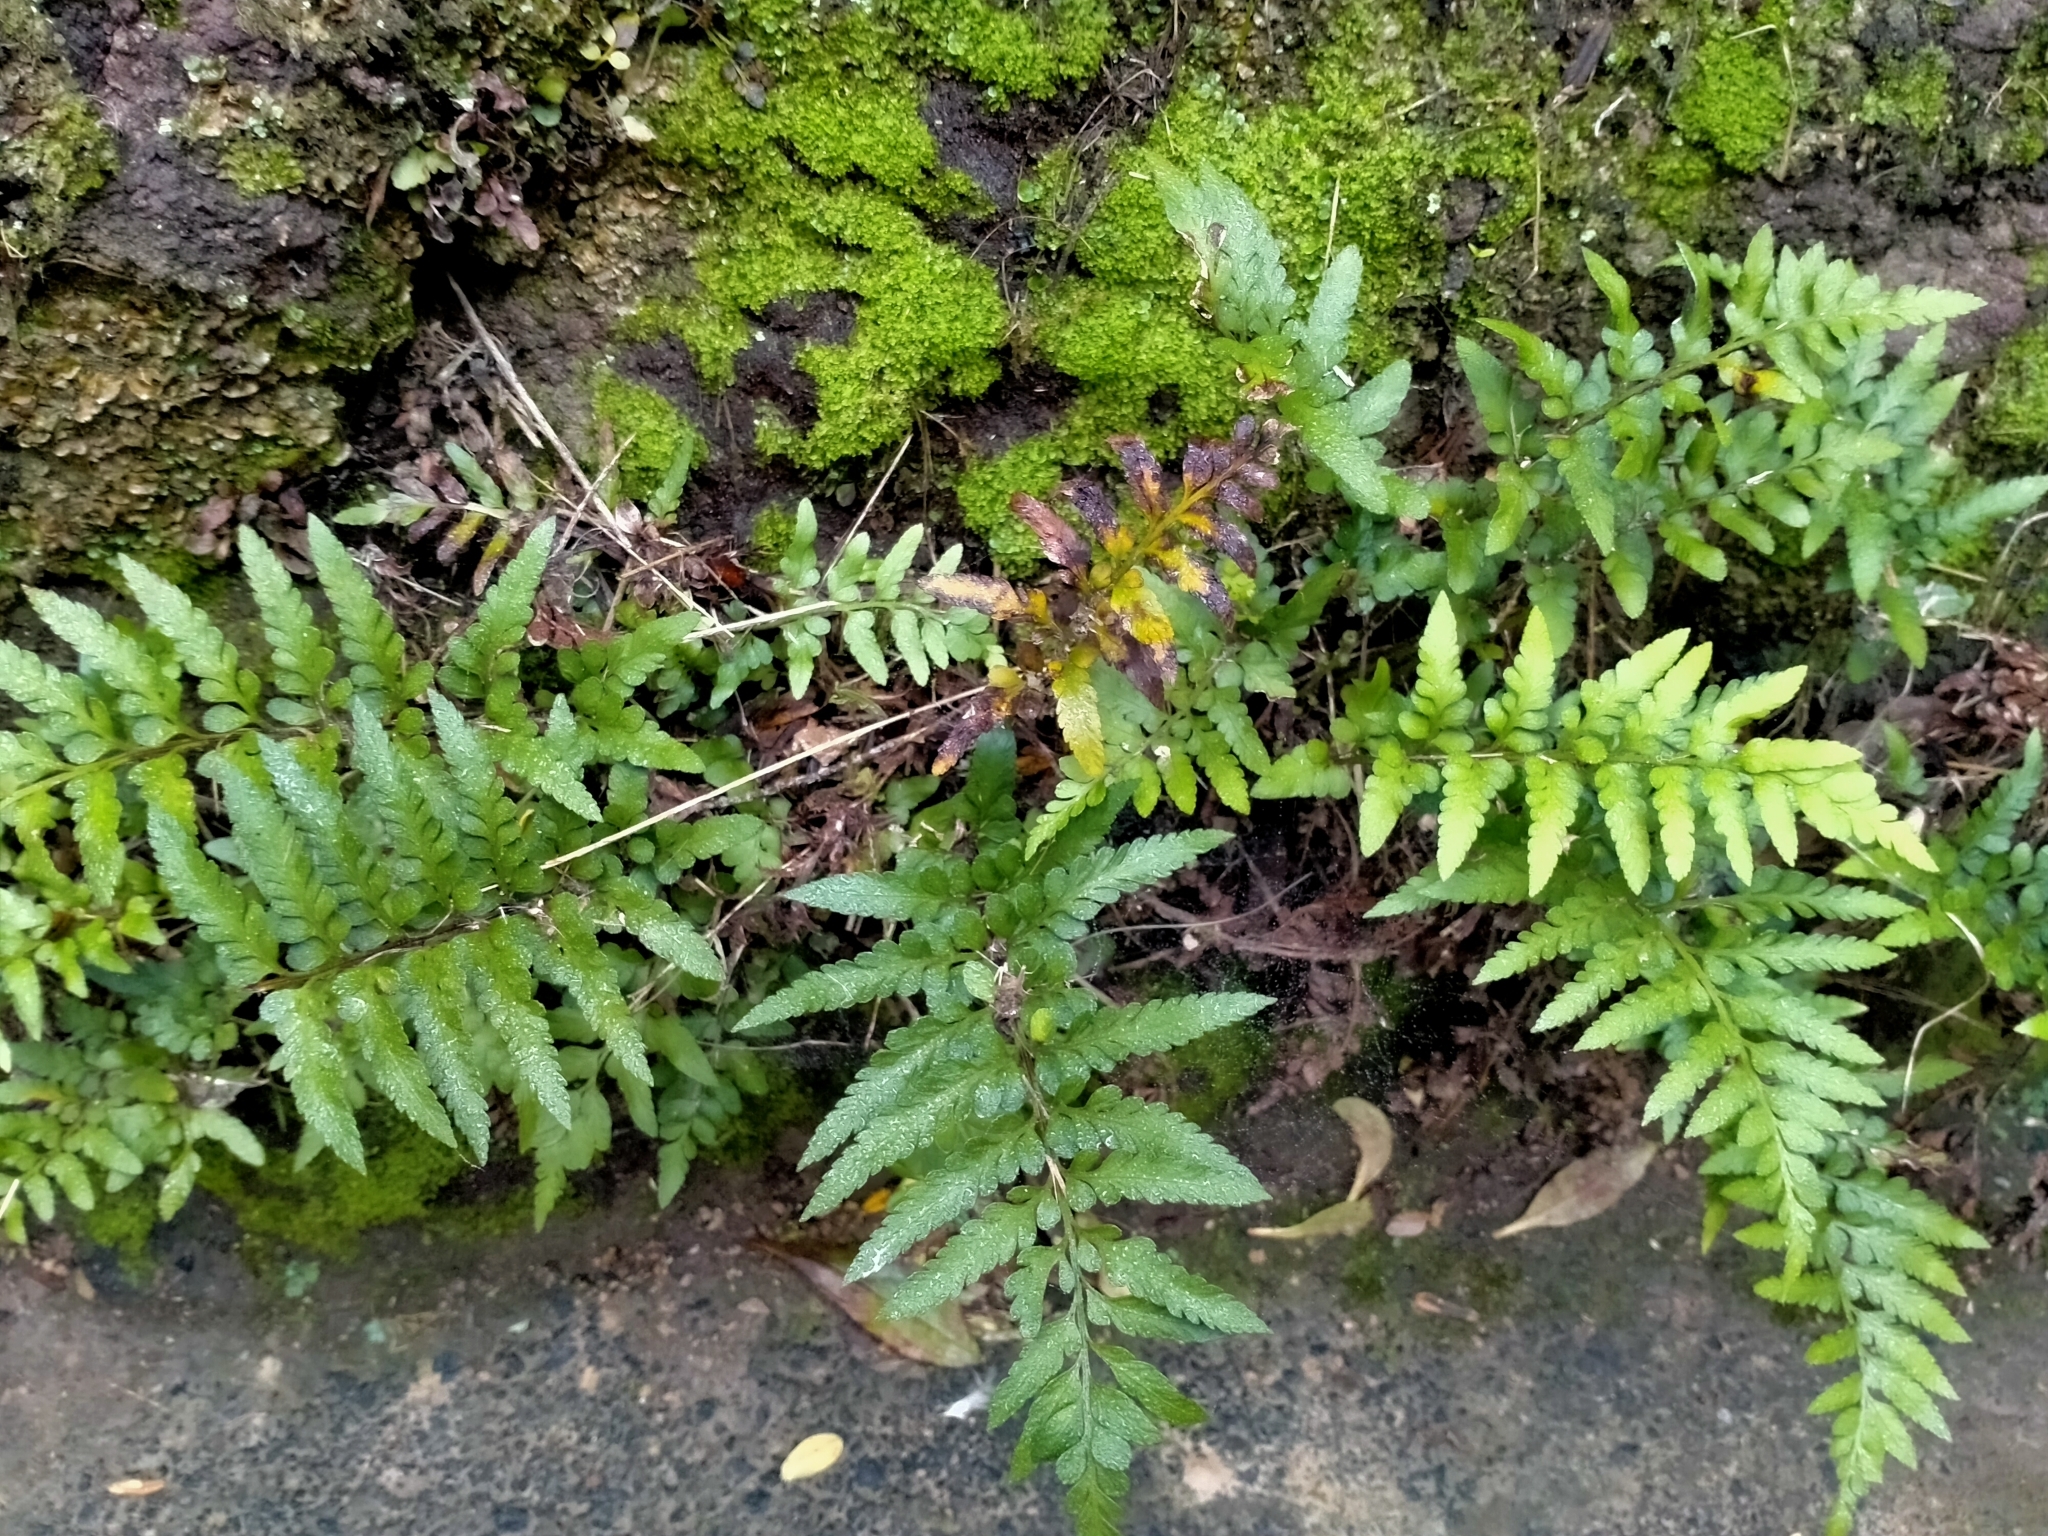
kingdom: Plantae
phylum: Tracheophyta
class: Polypodiopsida
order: Polypodiales
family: Aspleniaceae
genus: Asplenium
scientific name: Asplenium lyallii
